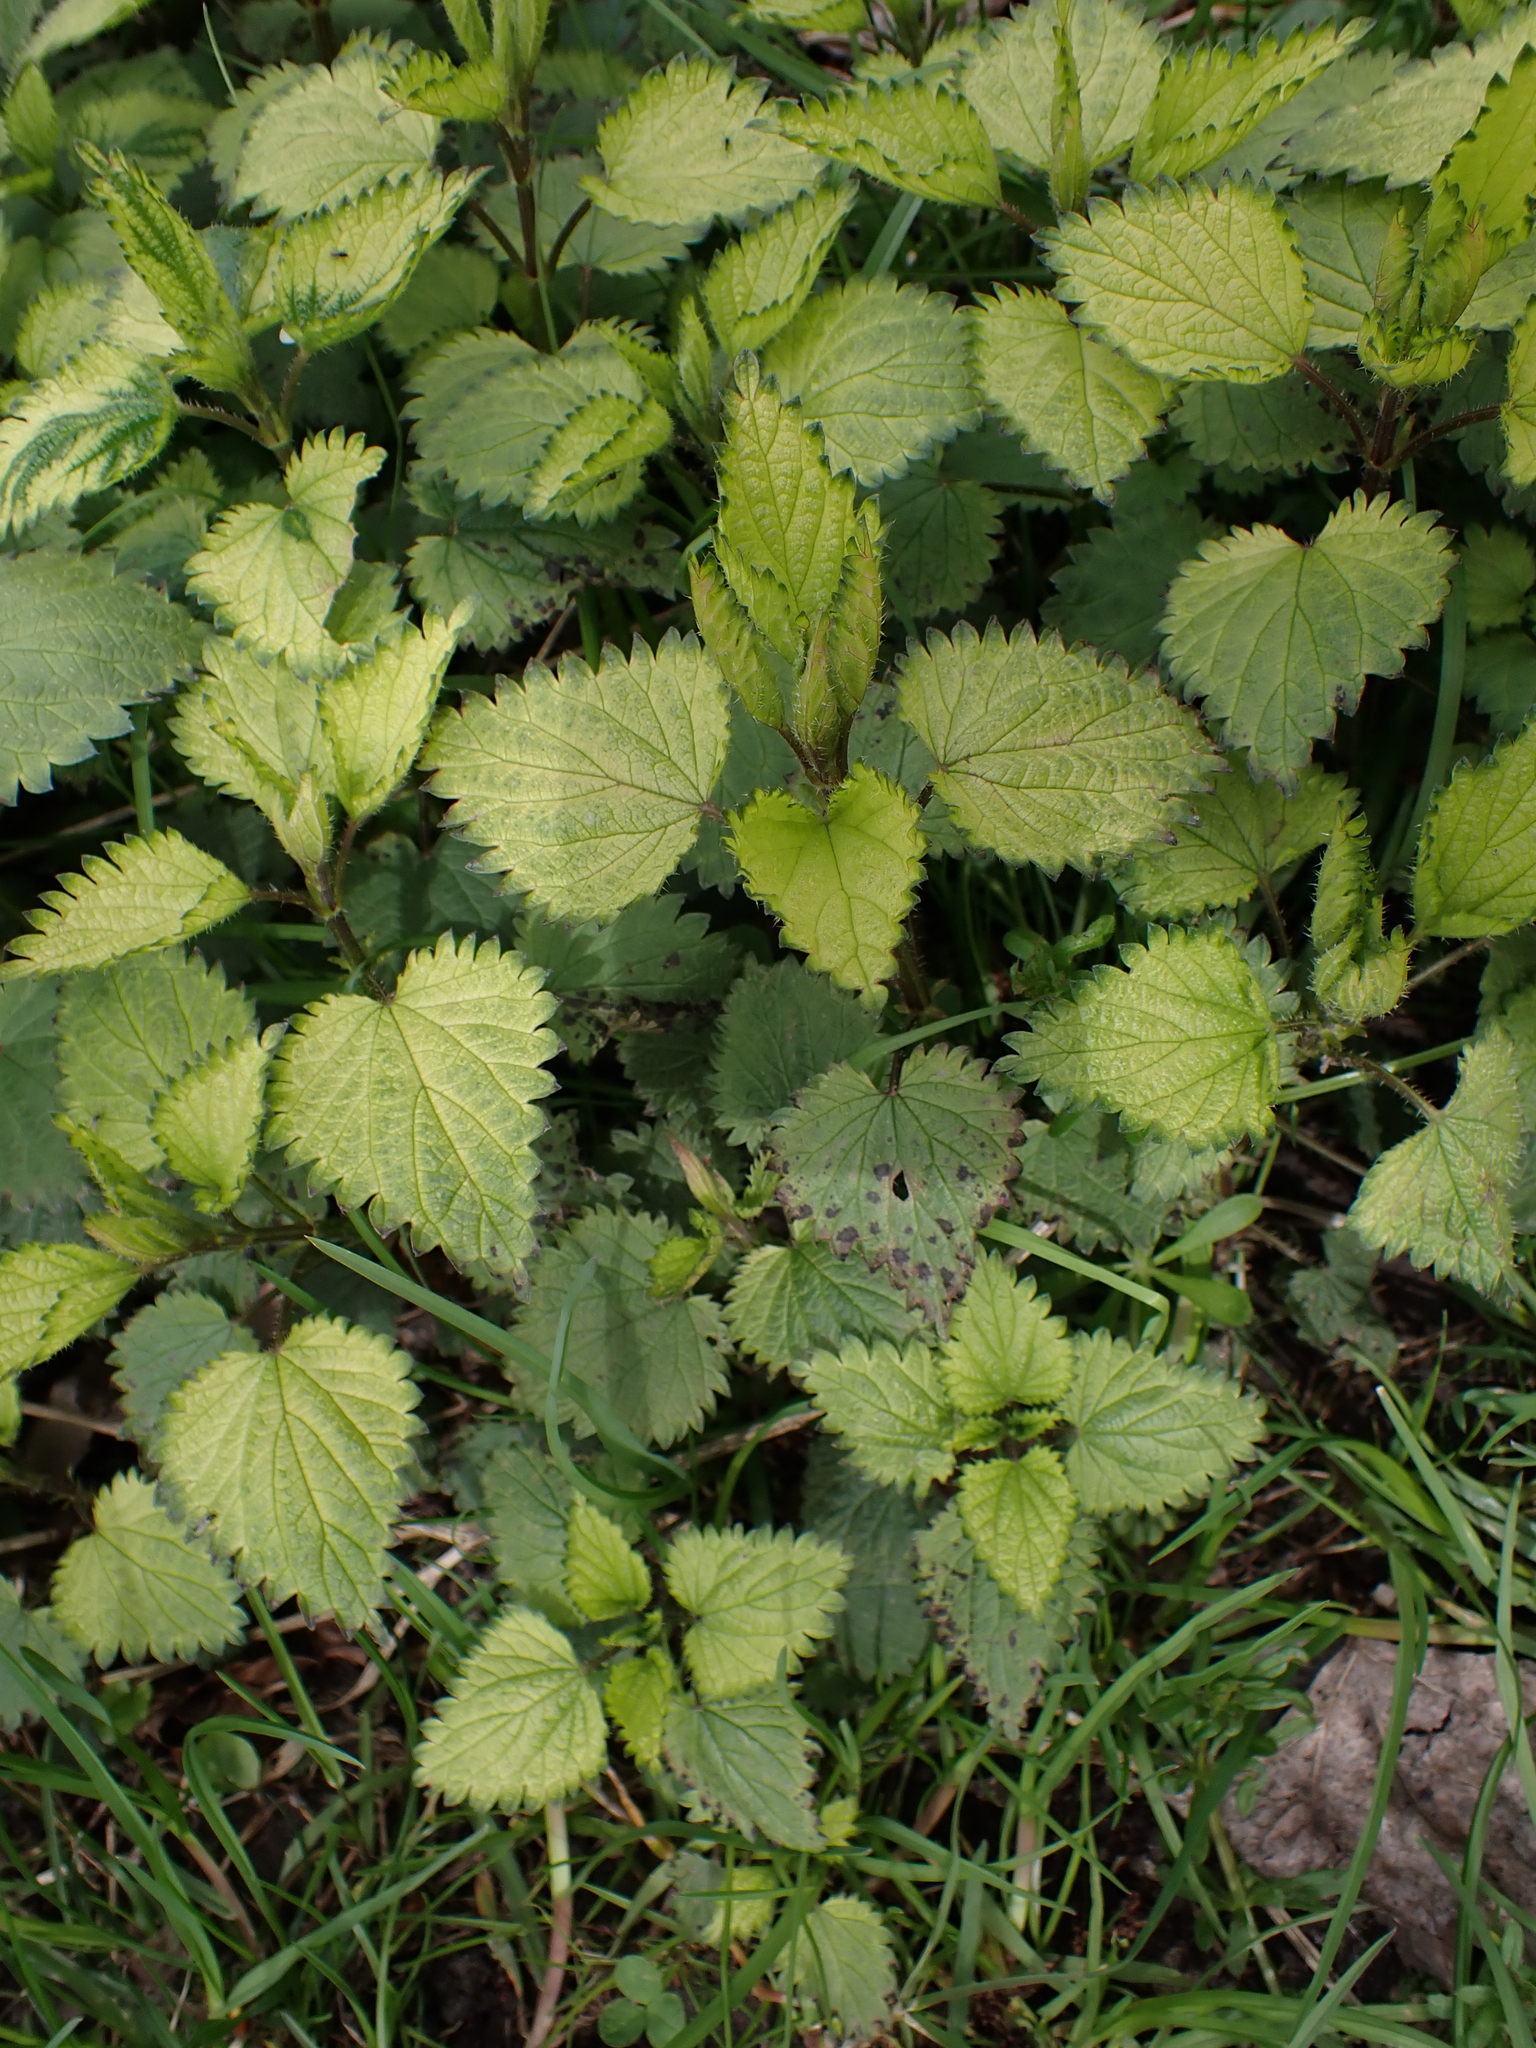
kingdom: Plantae
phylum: Tracheophyta
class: Magnoliopsida
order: Rosales
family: Urticaceae
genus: Urtica
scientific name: Urtica dioica
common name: Common nettle
